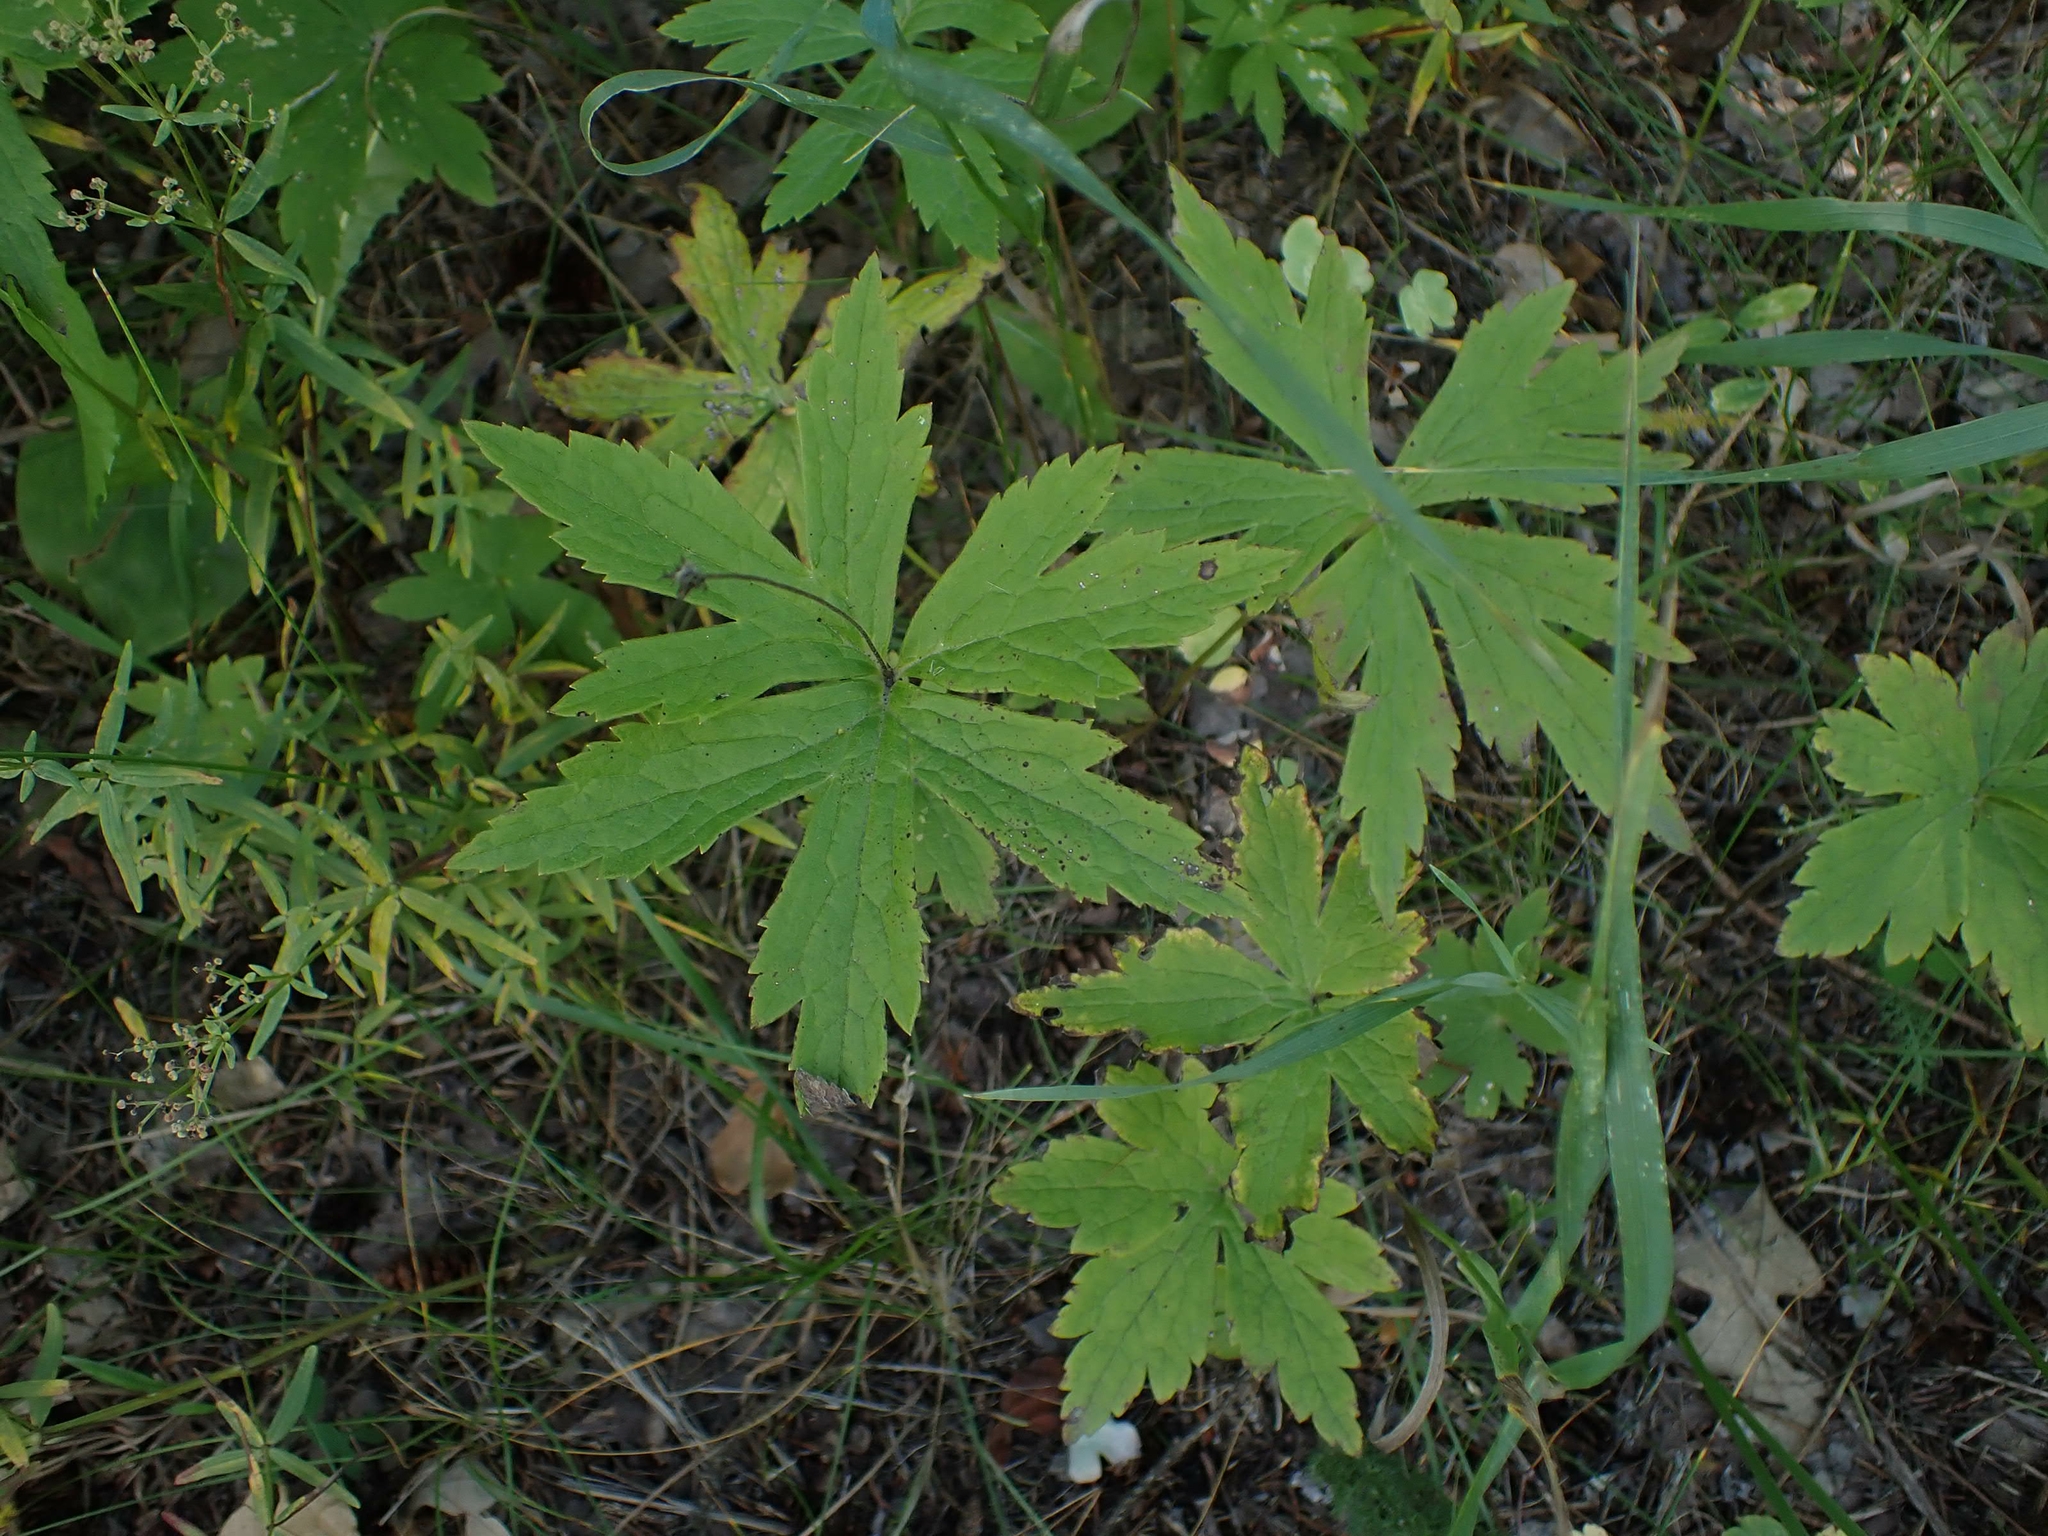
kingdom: Plantae
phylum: Tracheophyta
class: Magnoliopsida
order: Ranunculales
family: Ranunculaceae
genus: Anemonastrum
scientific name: Anemonastrum canadense
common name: Canada anemone
